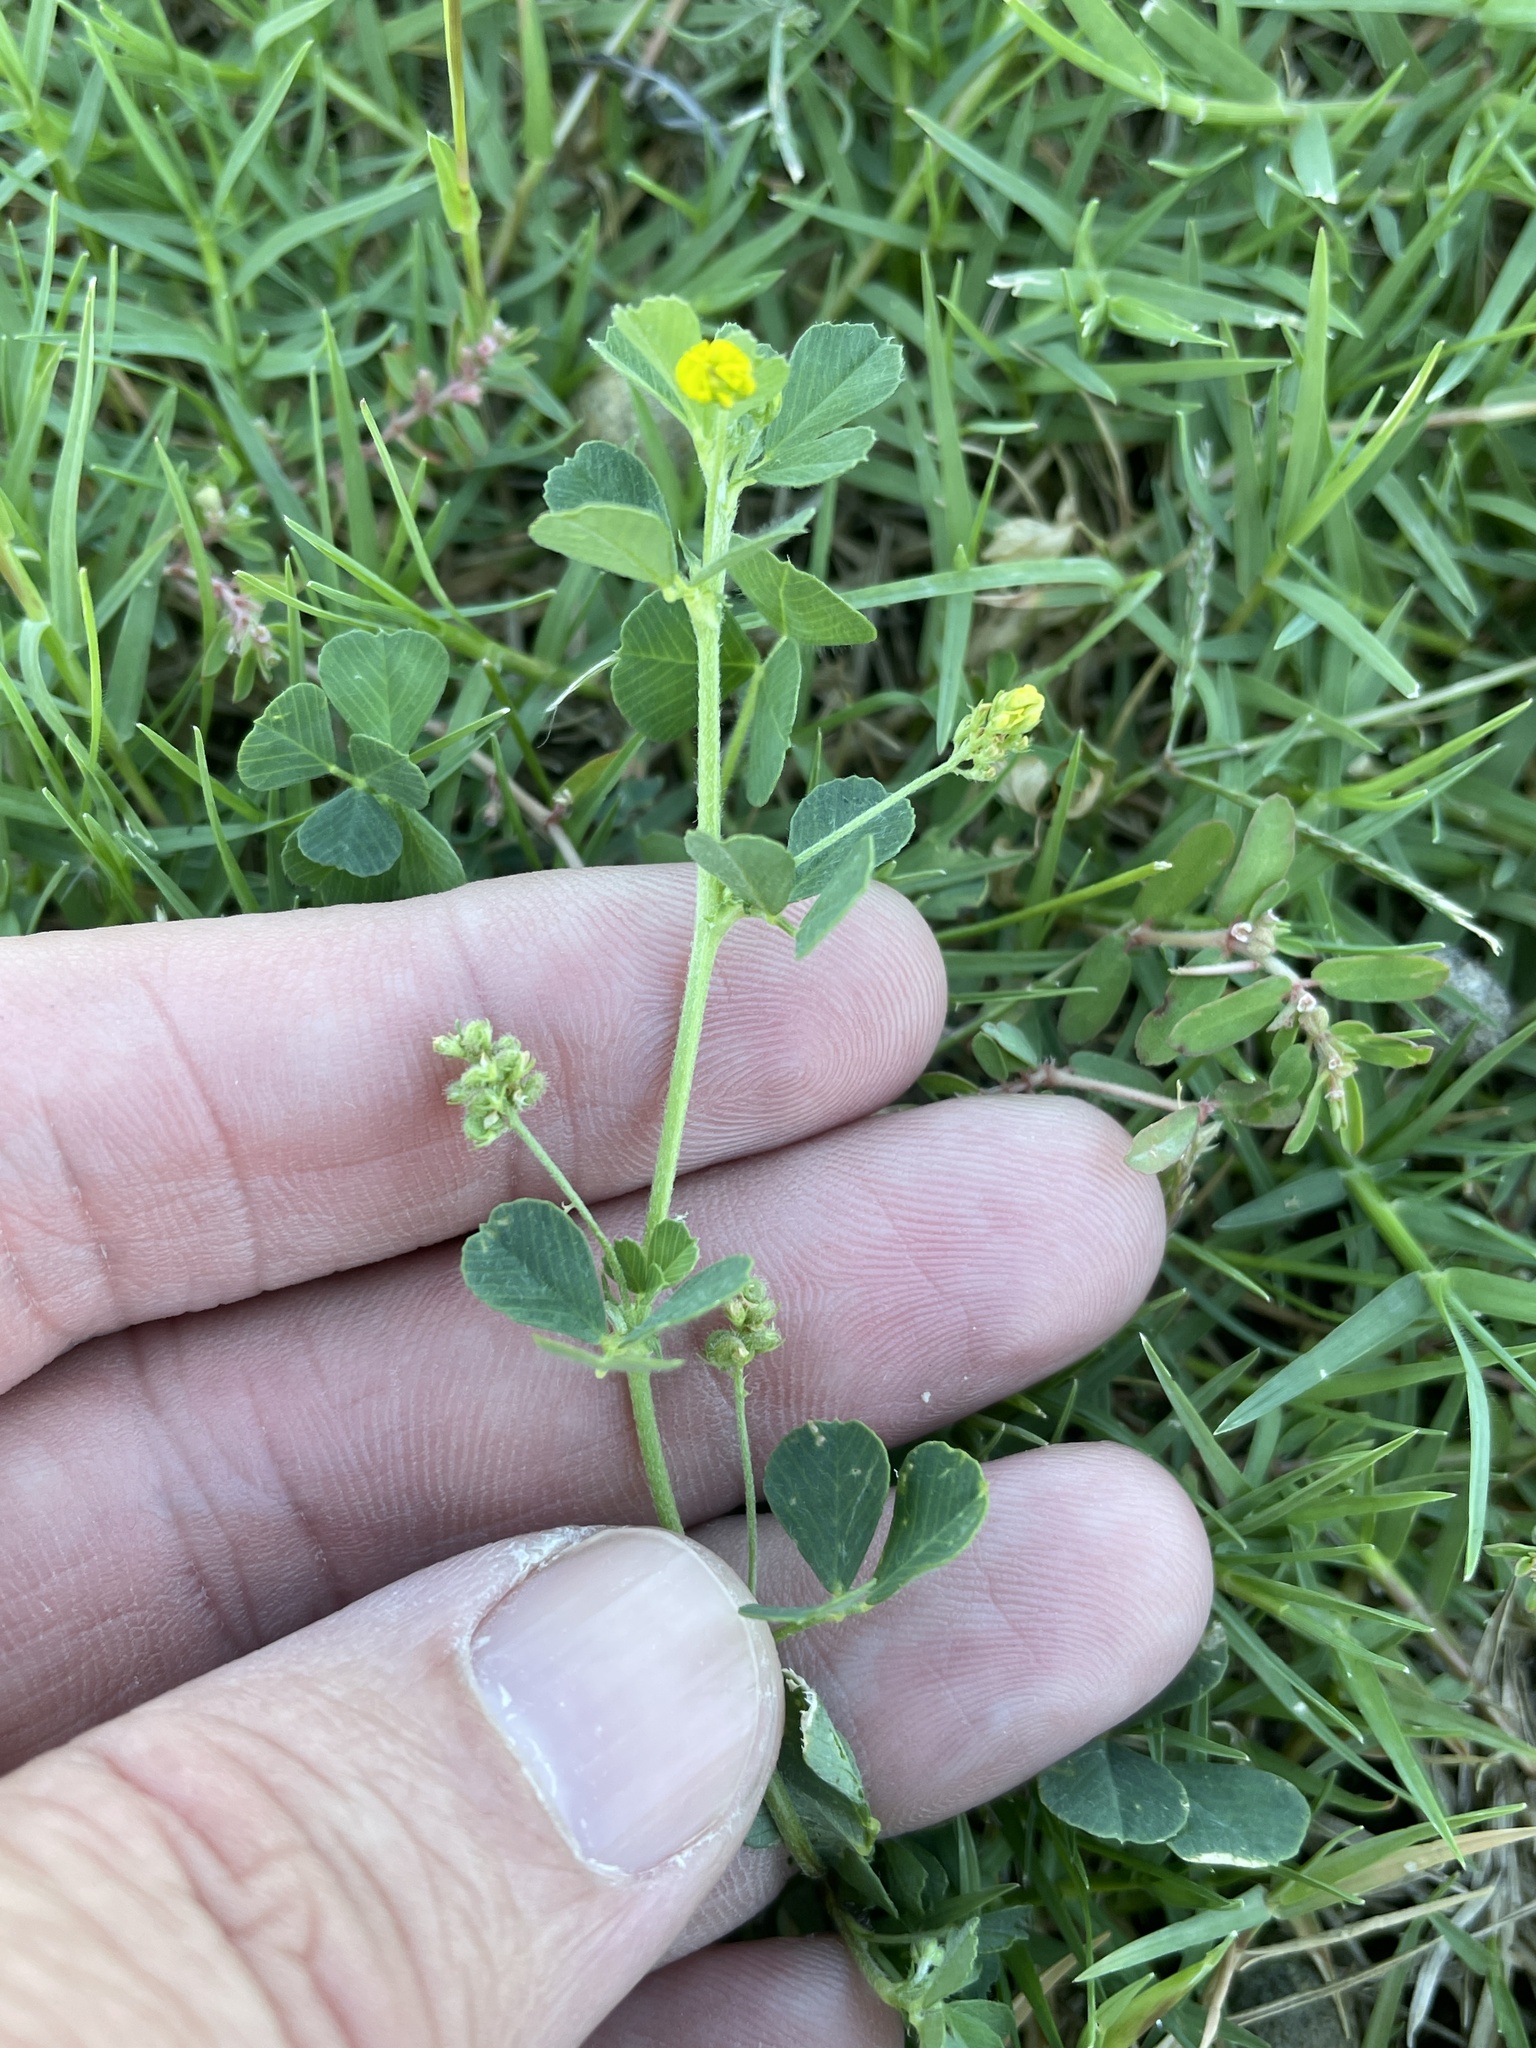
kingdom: Plantae
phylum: Tracheophyta
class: Magnoliopsida
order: Fabales
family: Fabaceae
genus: Medicago
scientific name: Medicago lupulina
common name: Black medick
